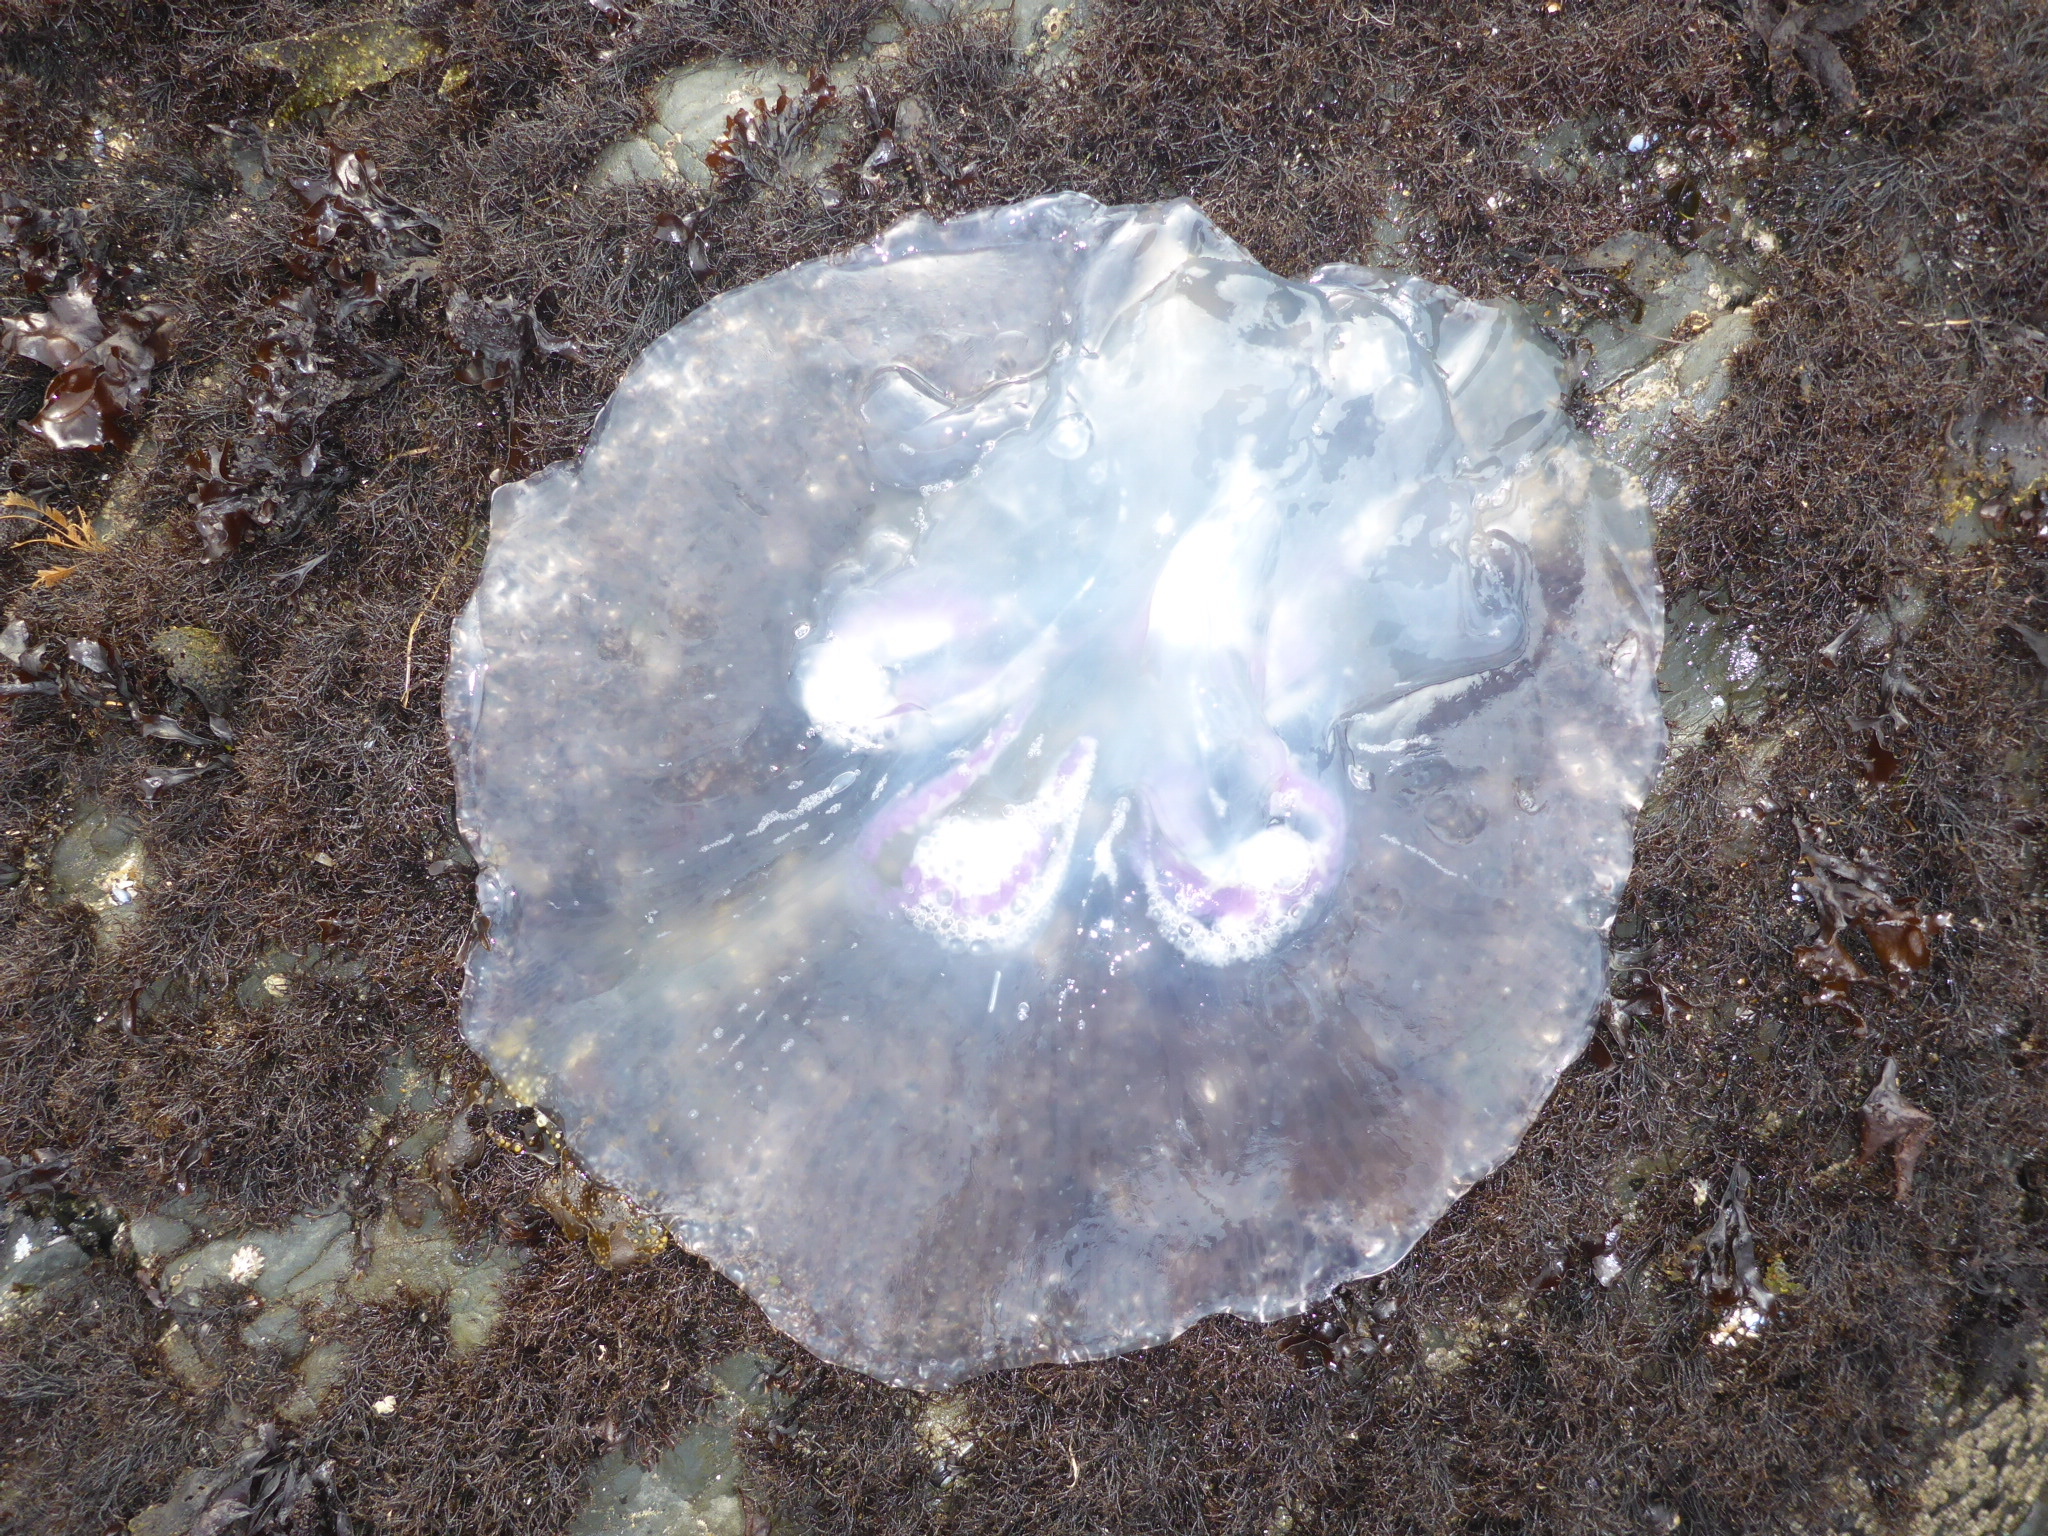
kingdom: Animalia
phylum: Cnidaria
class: Scyphozoa
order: Semaeostomeae
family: Ulmaridae
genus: Aurelia
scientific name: Aurelia labiata
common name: Pacific moon jelly
